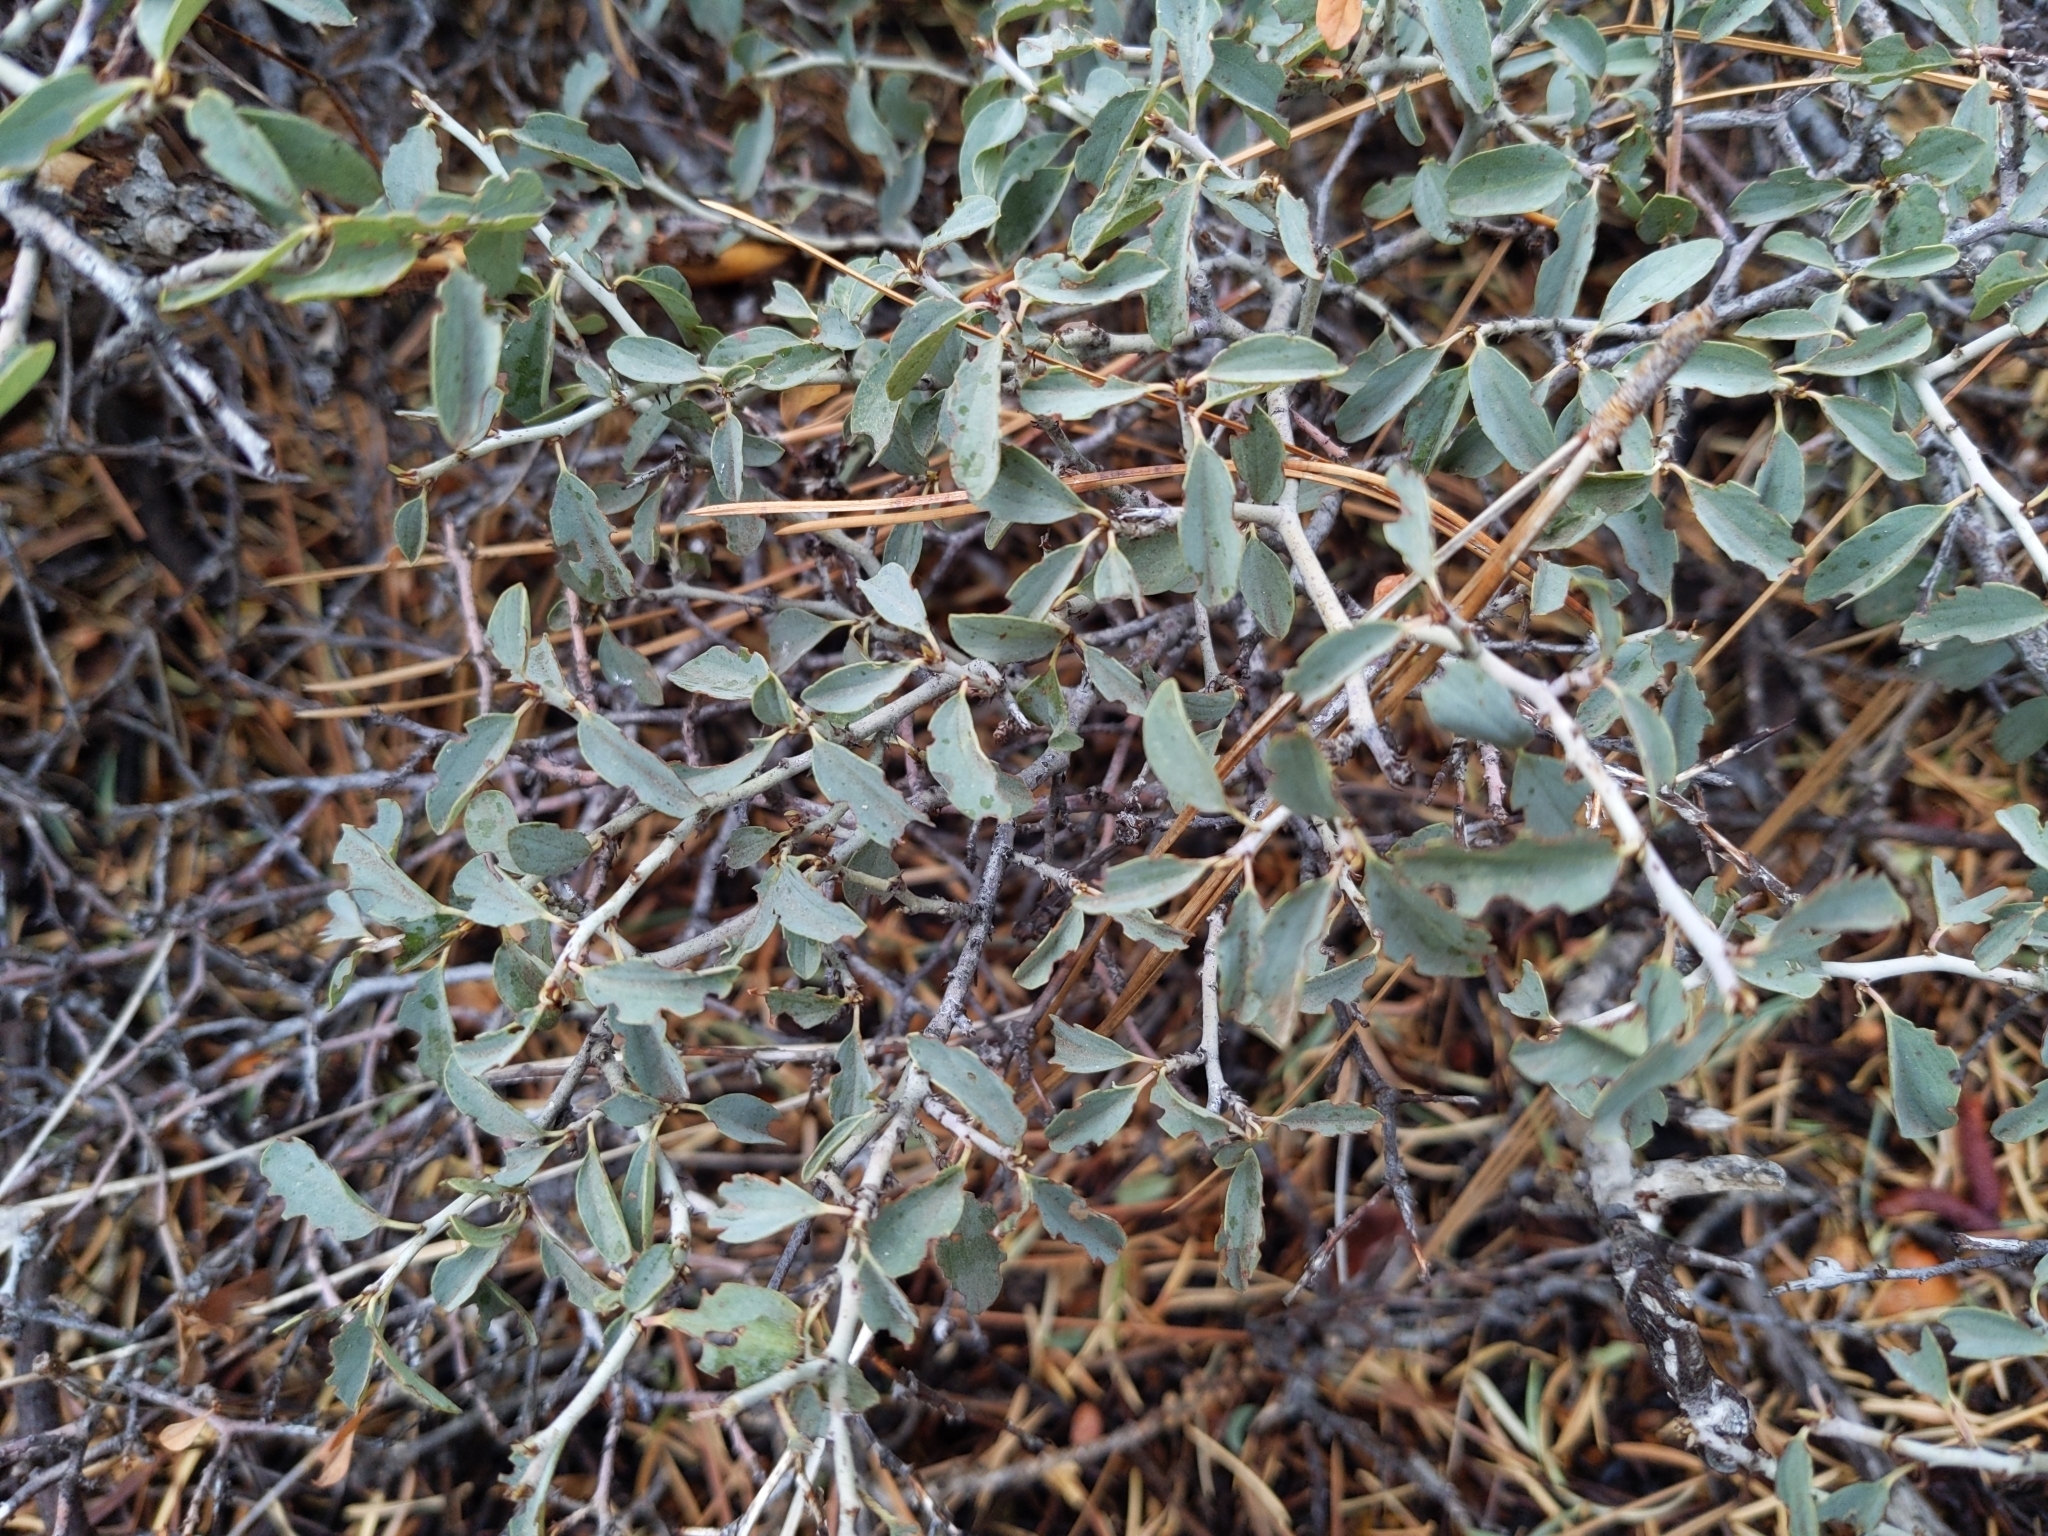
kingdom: Plantae
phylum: Tracheophyta
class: Magnoliopsida
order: Rosales
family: Rhamnaceae
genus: Ceanothus
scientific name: Ceanothus cordulatus
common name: Mountain whitethorn
